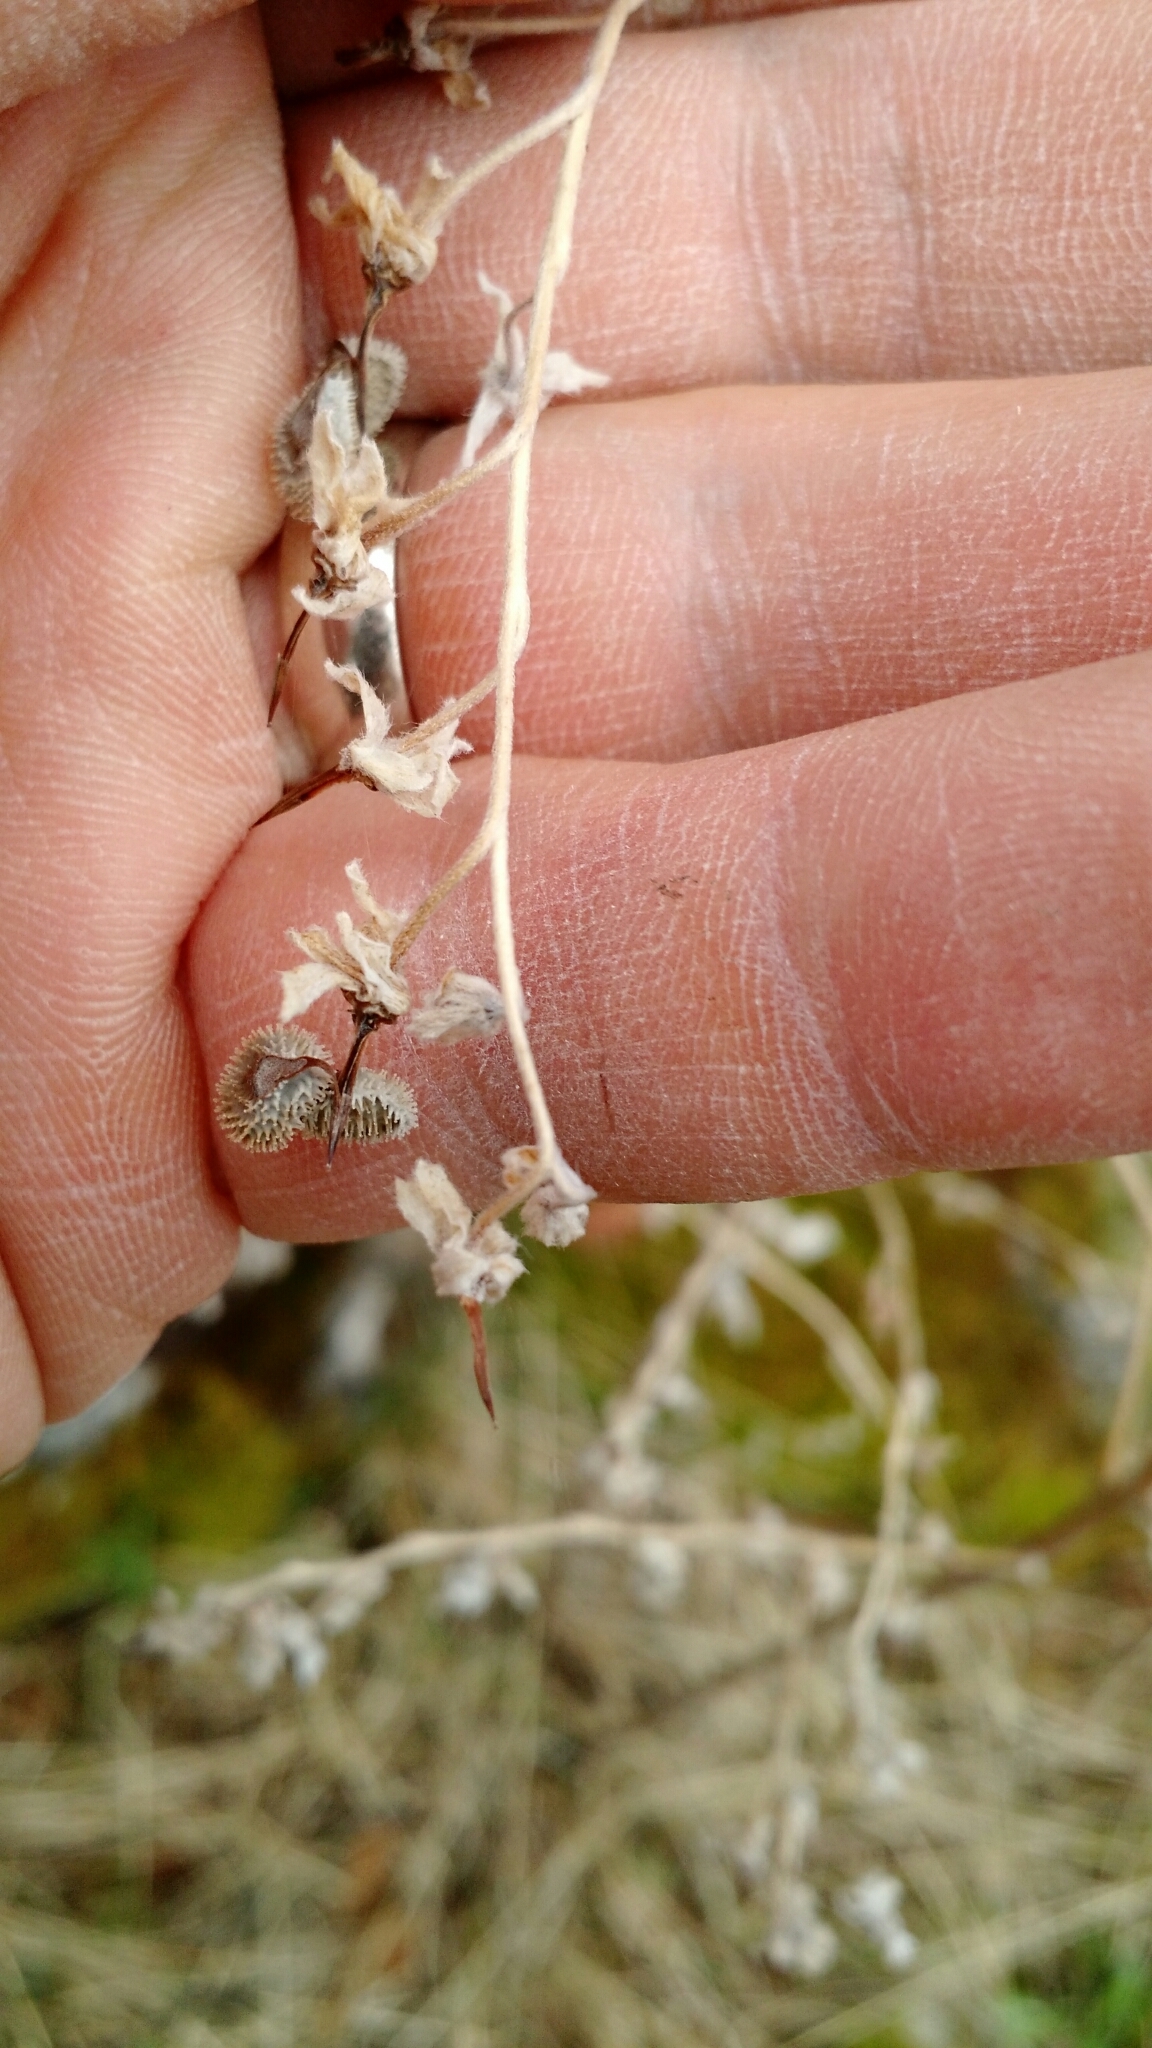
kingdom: Plantae
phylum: Tracheophyta
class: Magnoliopsida
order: Boraginales
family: Boraginaceae
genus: Cynoglossum
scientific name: Cynoglossum officinale
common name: Hound's-tongue
